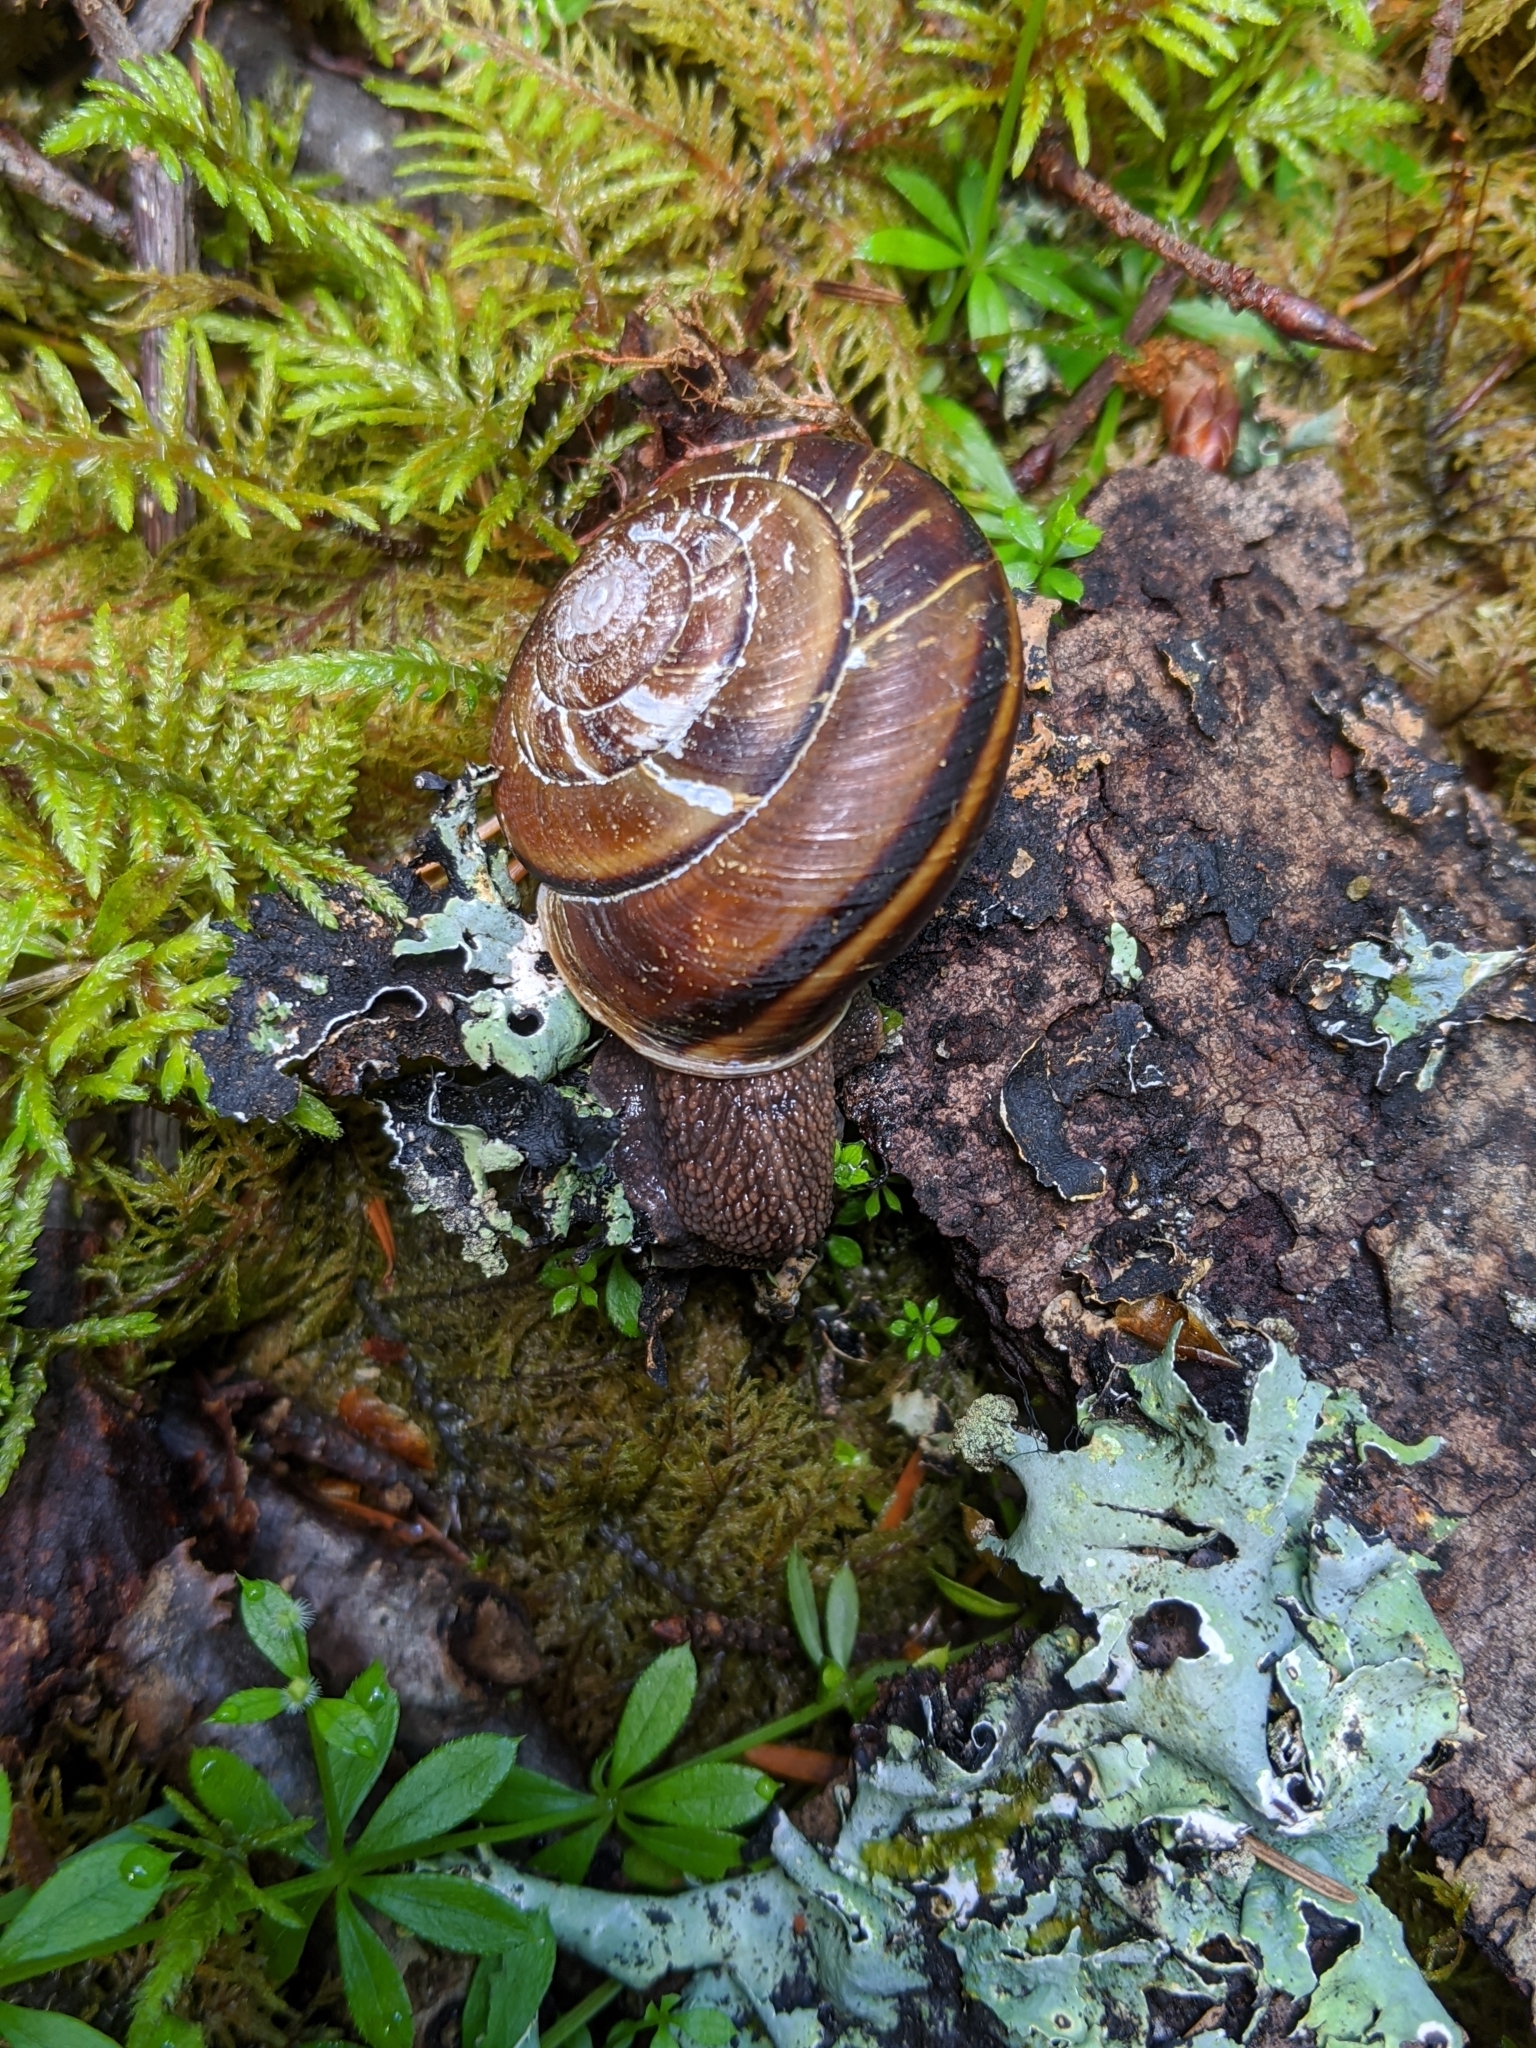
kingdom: Animalia
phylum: Mollusca
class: Gastropoda
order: Stylommatophora
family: Xanthonychidae
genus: Monadenia
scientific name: Monadenia fidelis
